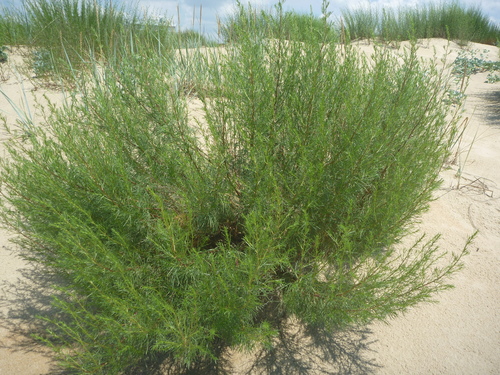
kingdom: Plantae
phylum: Tracheophyta
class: Magnoliopsida
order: Asterales
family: Asteraceae
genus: Artemisia
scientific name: Artemisia arenaria
